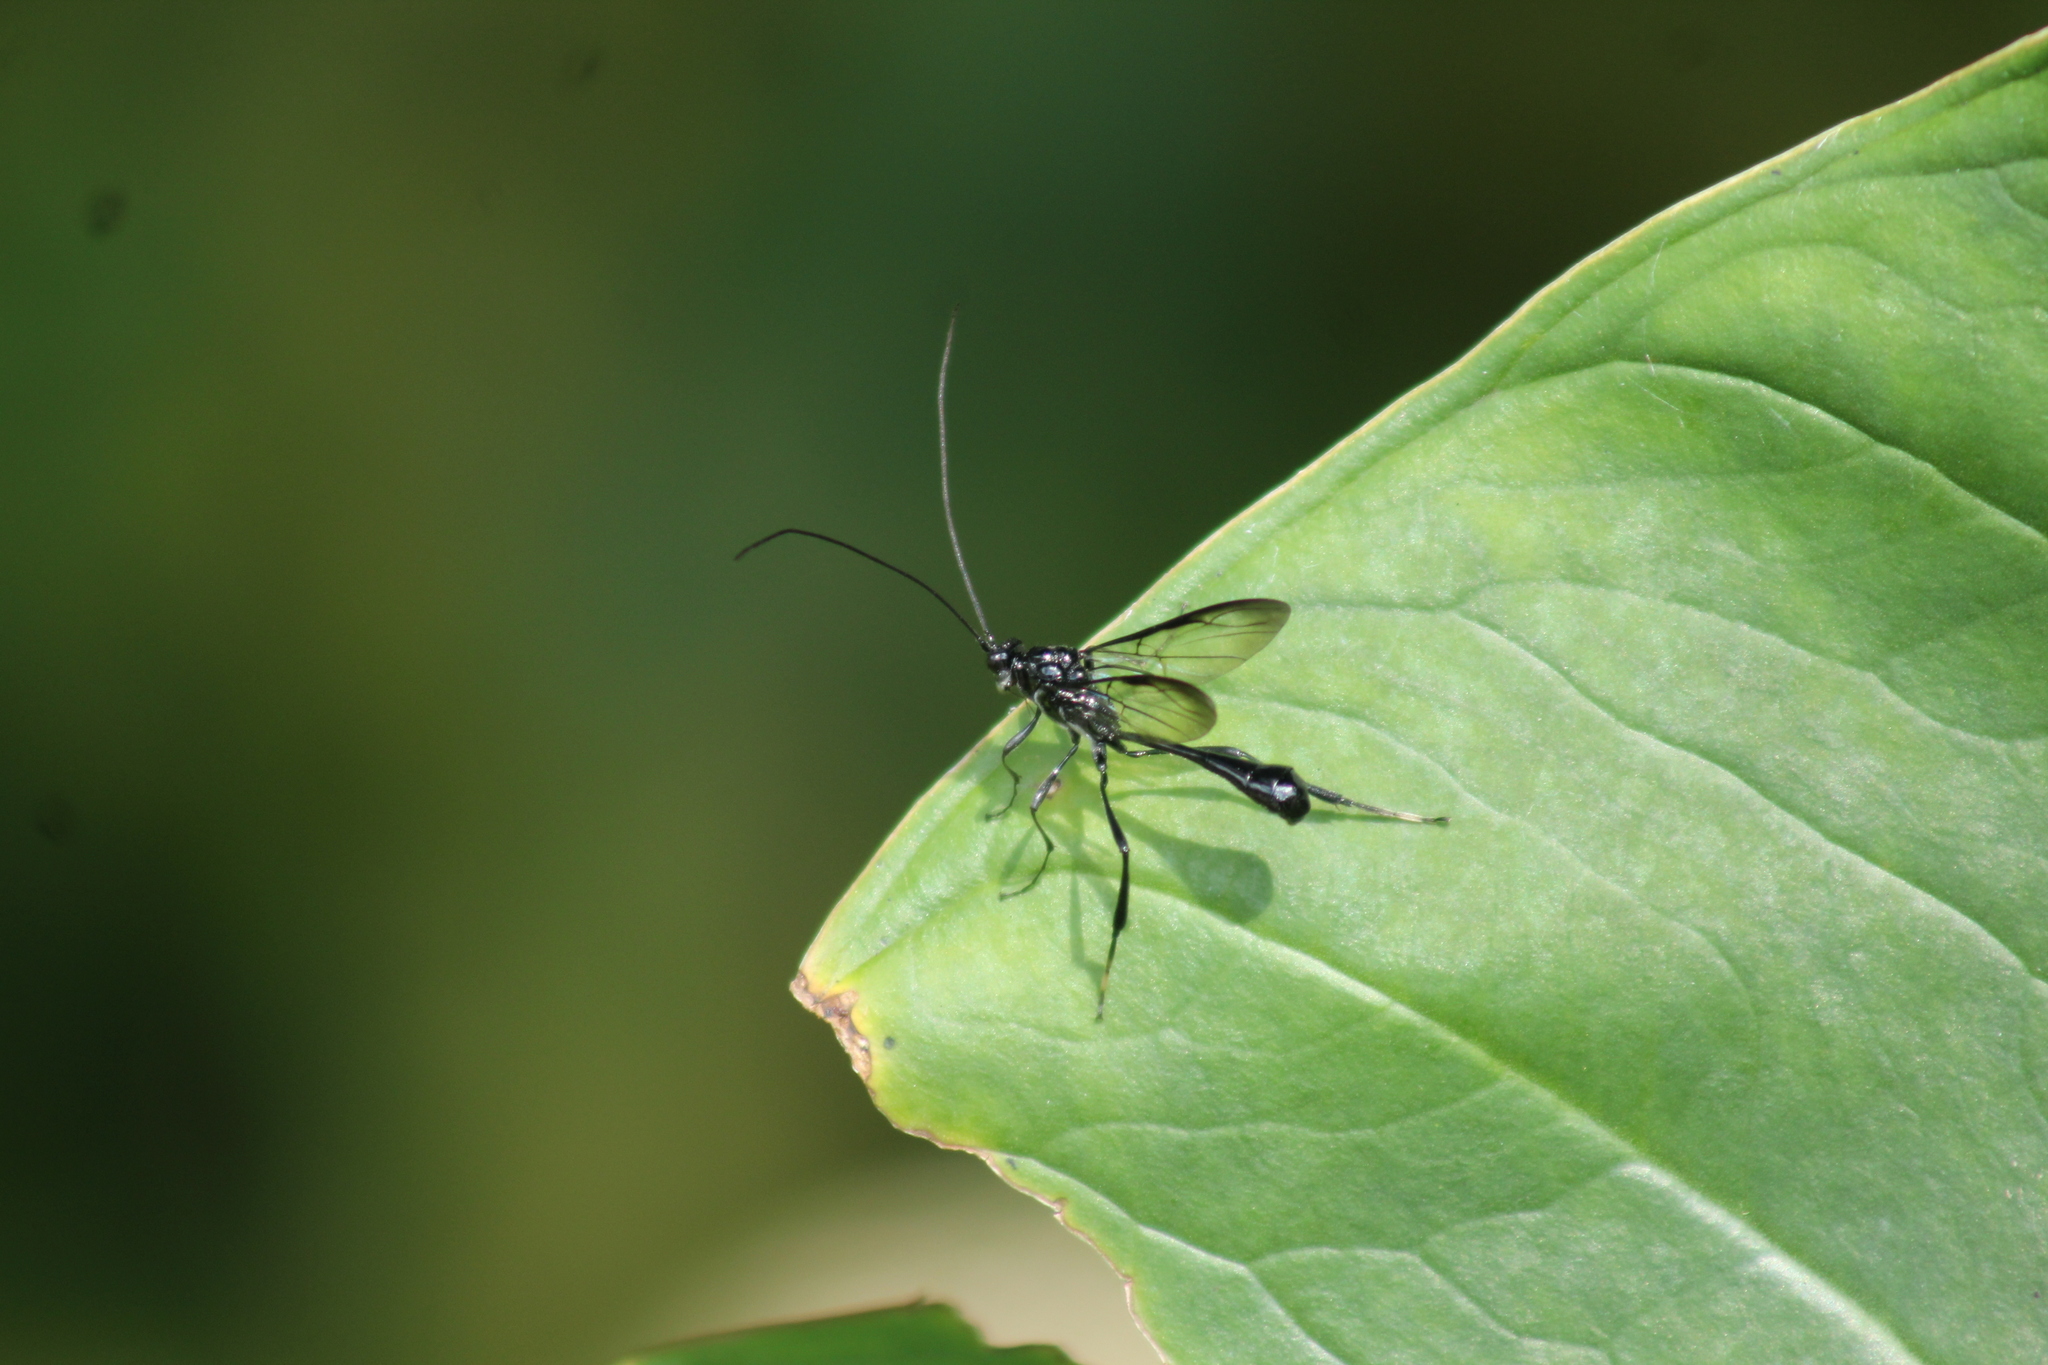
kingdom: Animalia
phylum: Arthropoda
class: Insecta
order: Hymenoptera
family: Pelecinidae
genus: Pelecinus
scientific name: Pelecinus polyturator
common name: American pelecinid wasp
